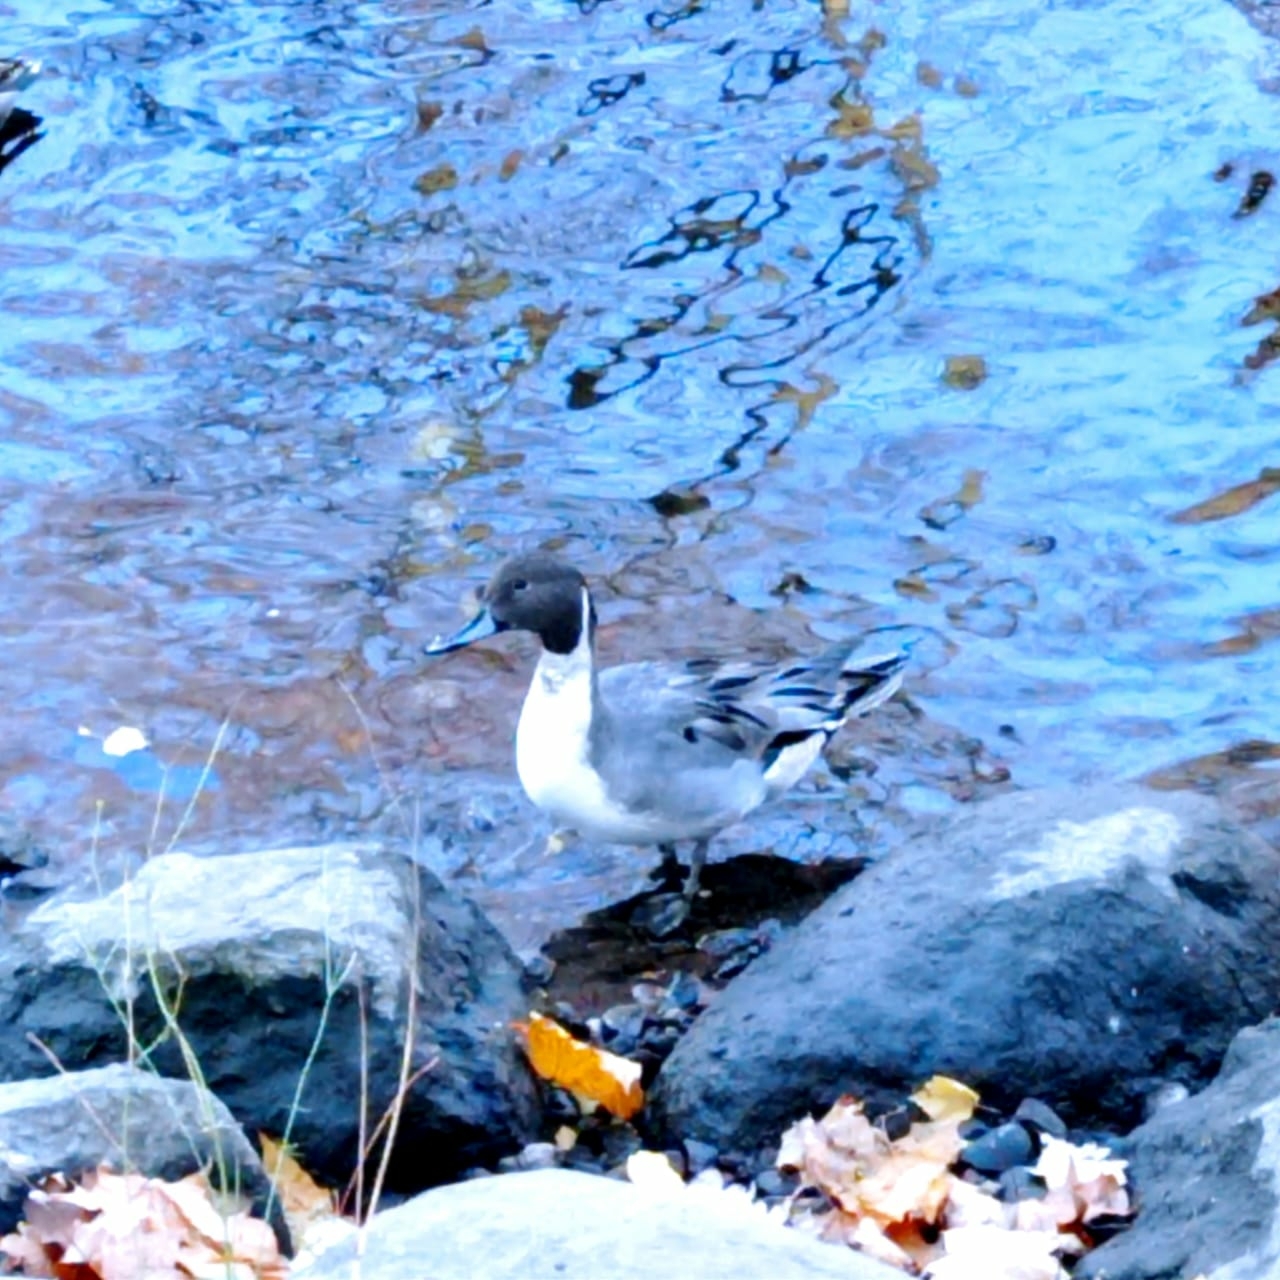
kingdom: Animalia
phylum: Chordata
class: Aves
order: Anseriformes
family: Anatidae
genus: Anas
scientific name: Anas acuta
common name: Northern pintail
